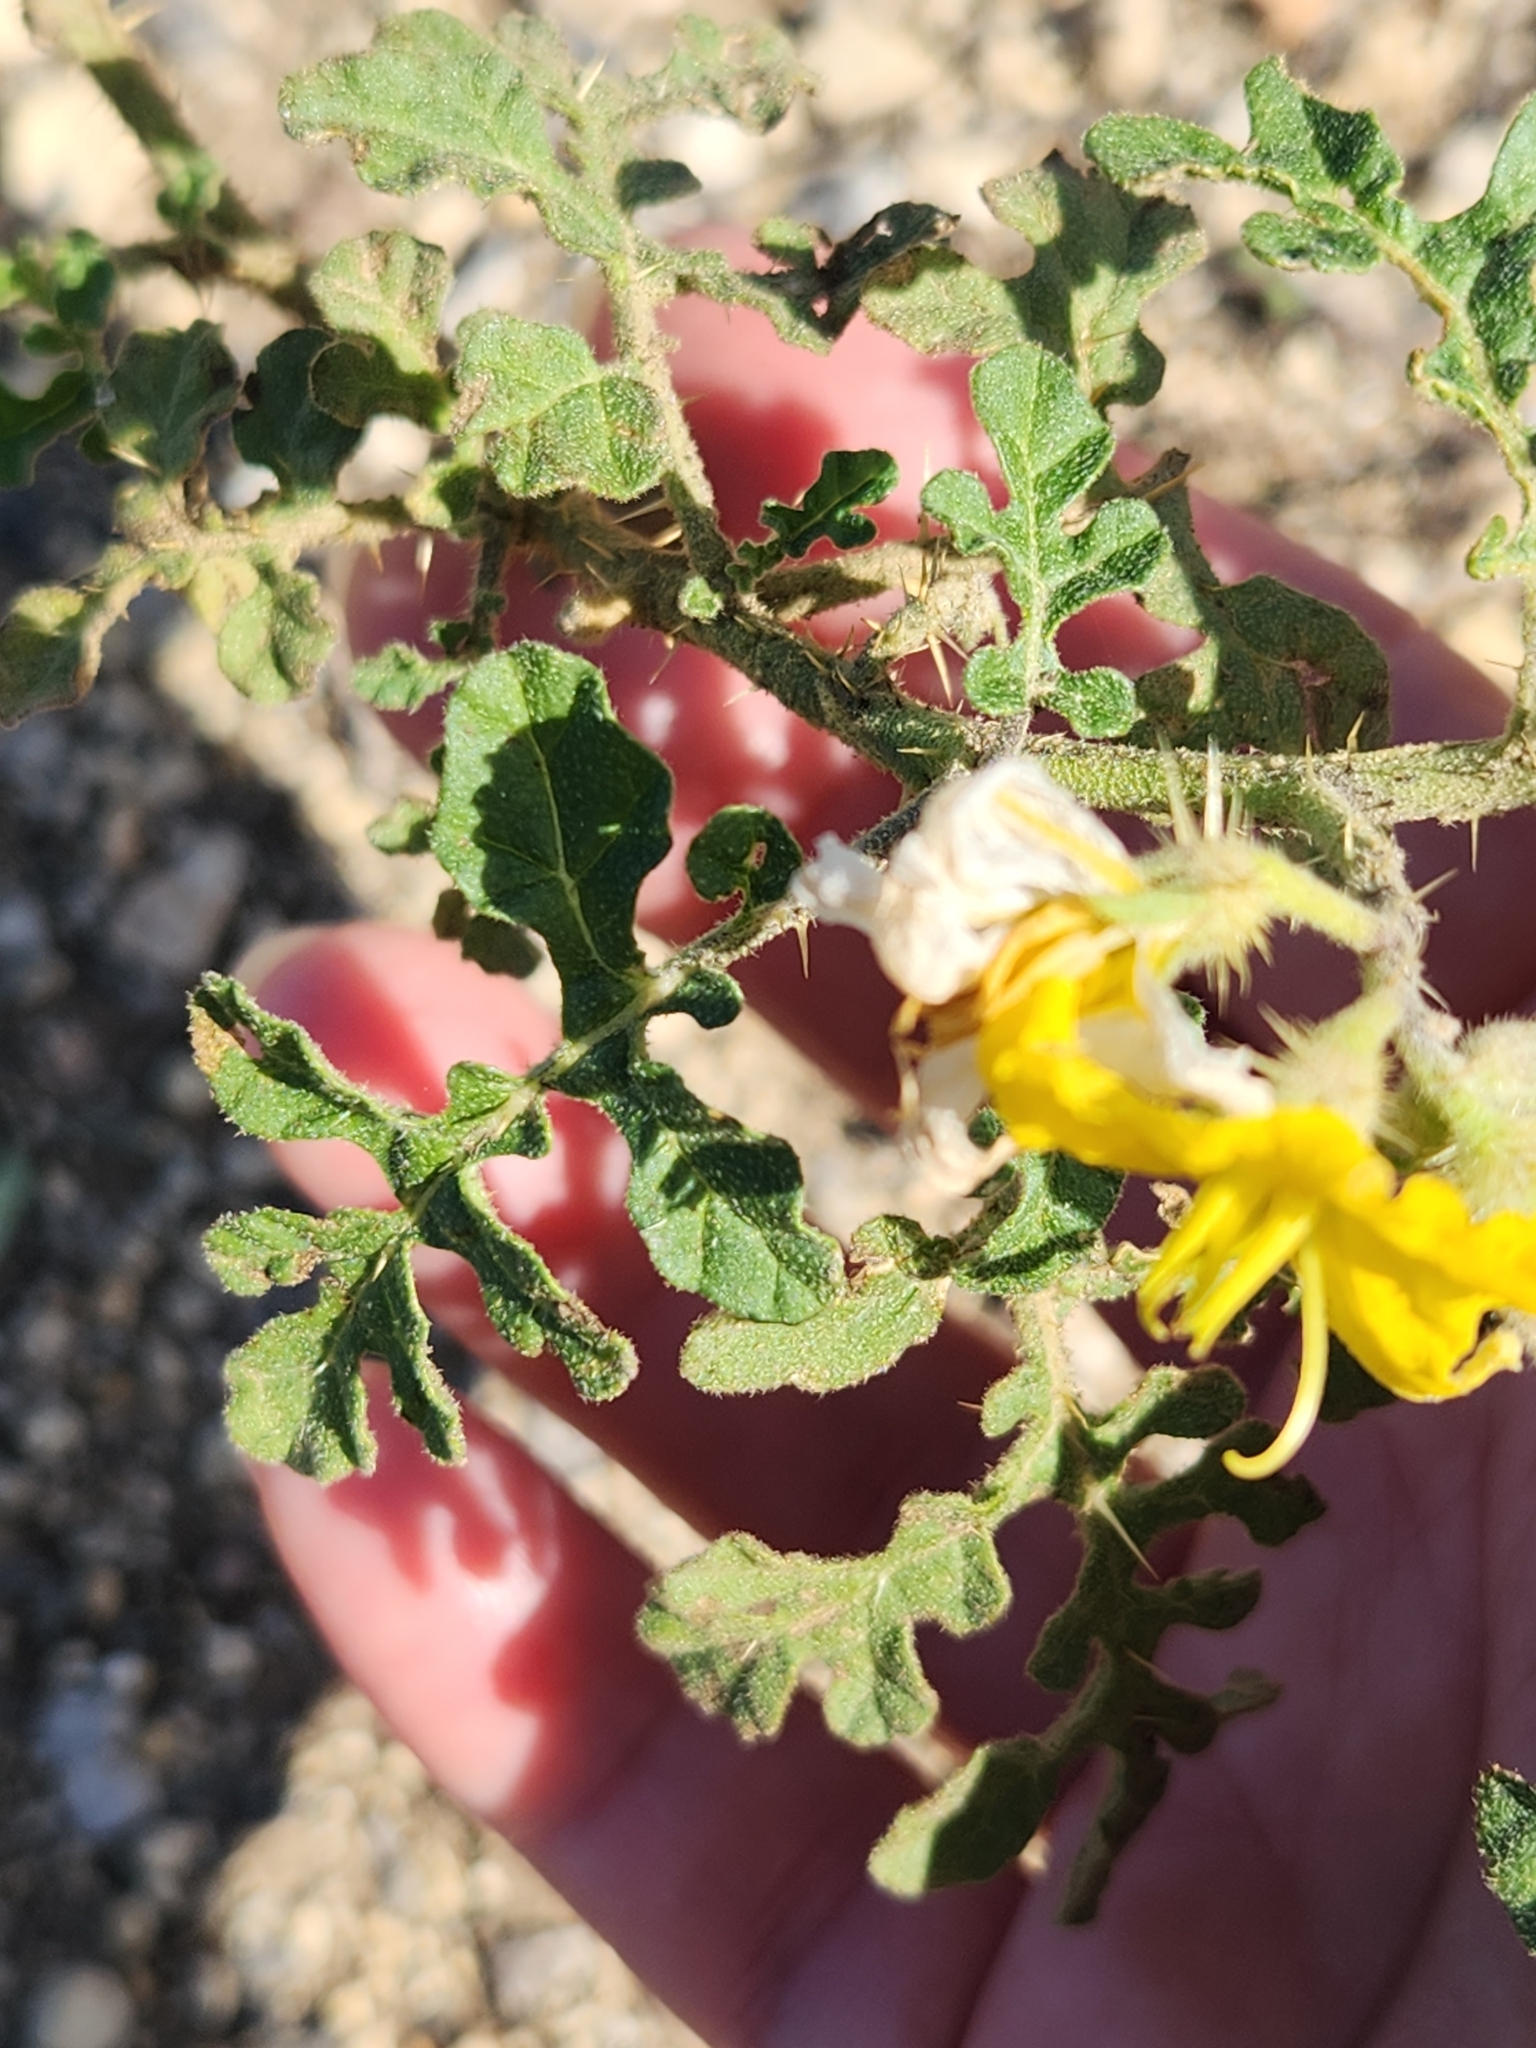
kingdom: Plantae
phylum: Tracheophyta
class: Magnoliopsida
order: Solanales
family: Solanaceae
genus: Solanum
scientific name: Solanum angustifolium
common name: Buffalobur nightshade
